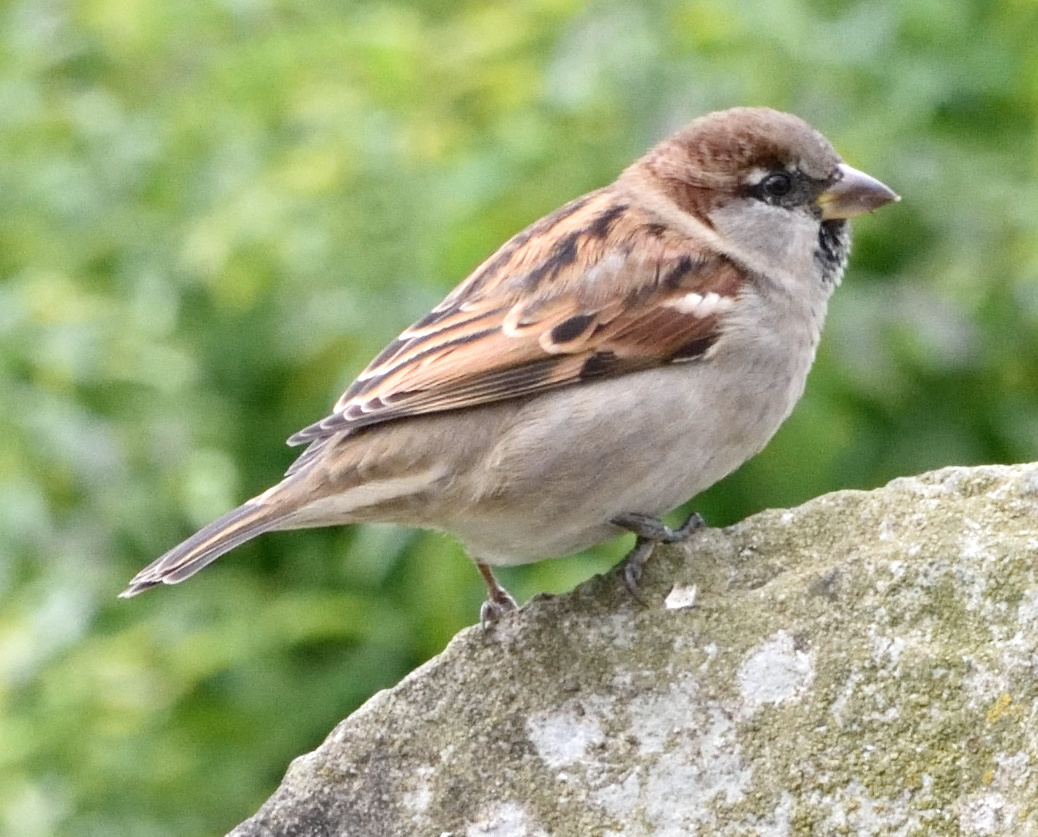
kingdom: Animalia
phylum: Chordata
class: Aves
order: Passeriformes
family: Passeridae
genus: Passer
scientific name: Passer domesticus
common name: House sparrow
